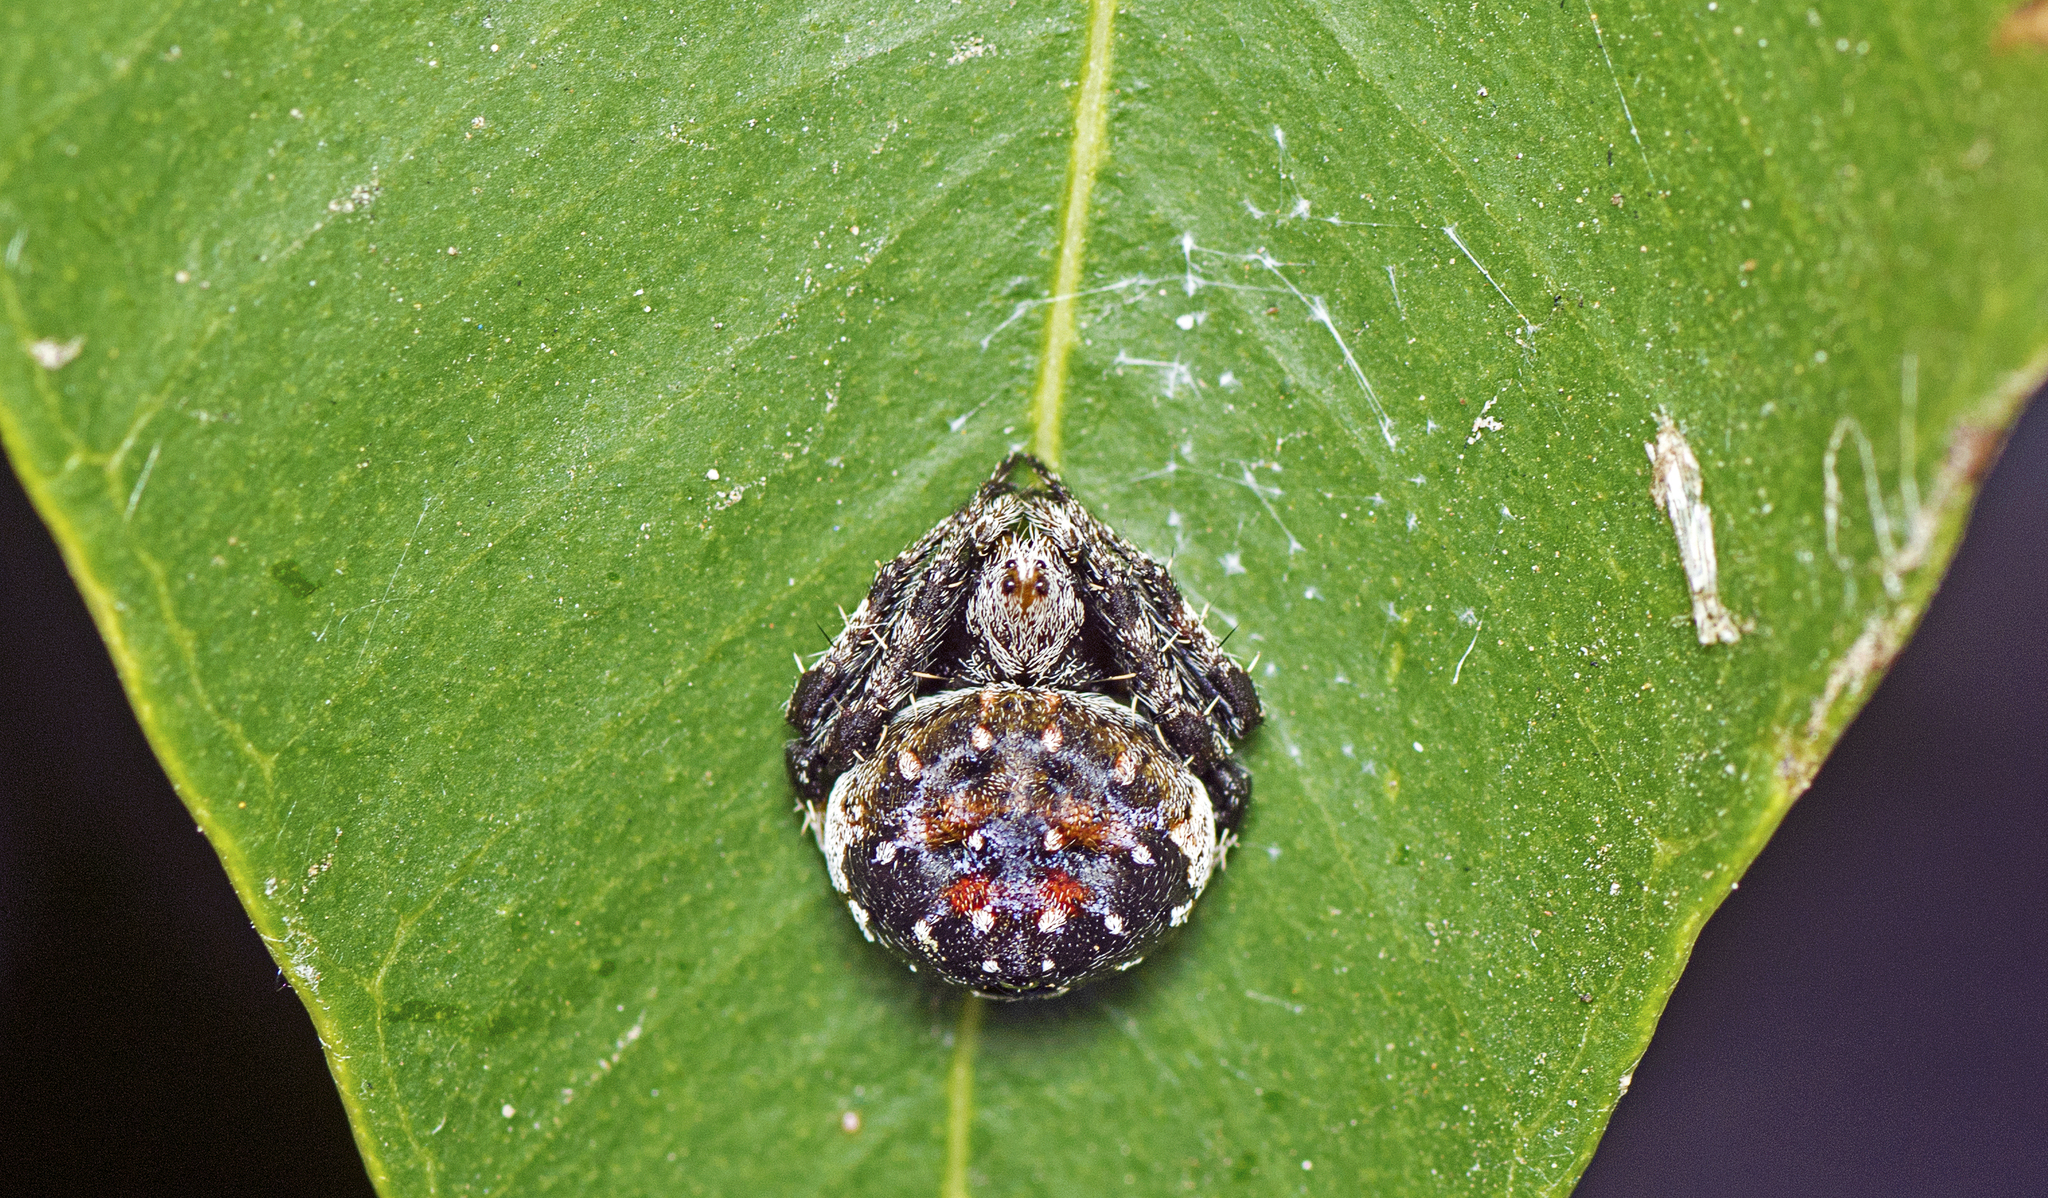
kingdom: Animalia
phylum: Arthropoda
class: Arachnida
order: Araneae
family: Araneidae
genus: Araneus
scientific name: Araneus rotundulus
